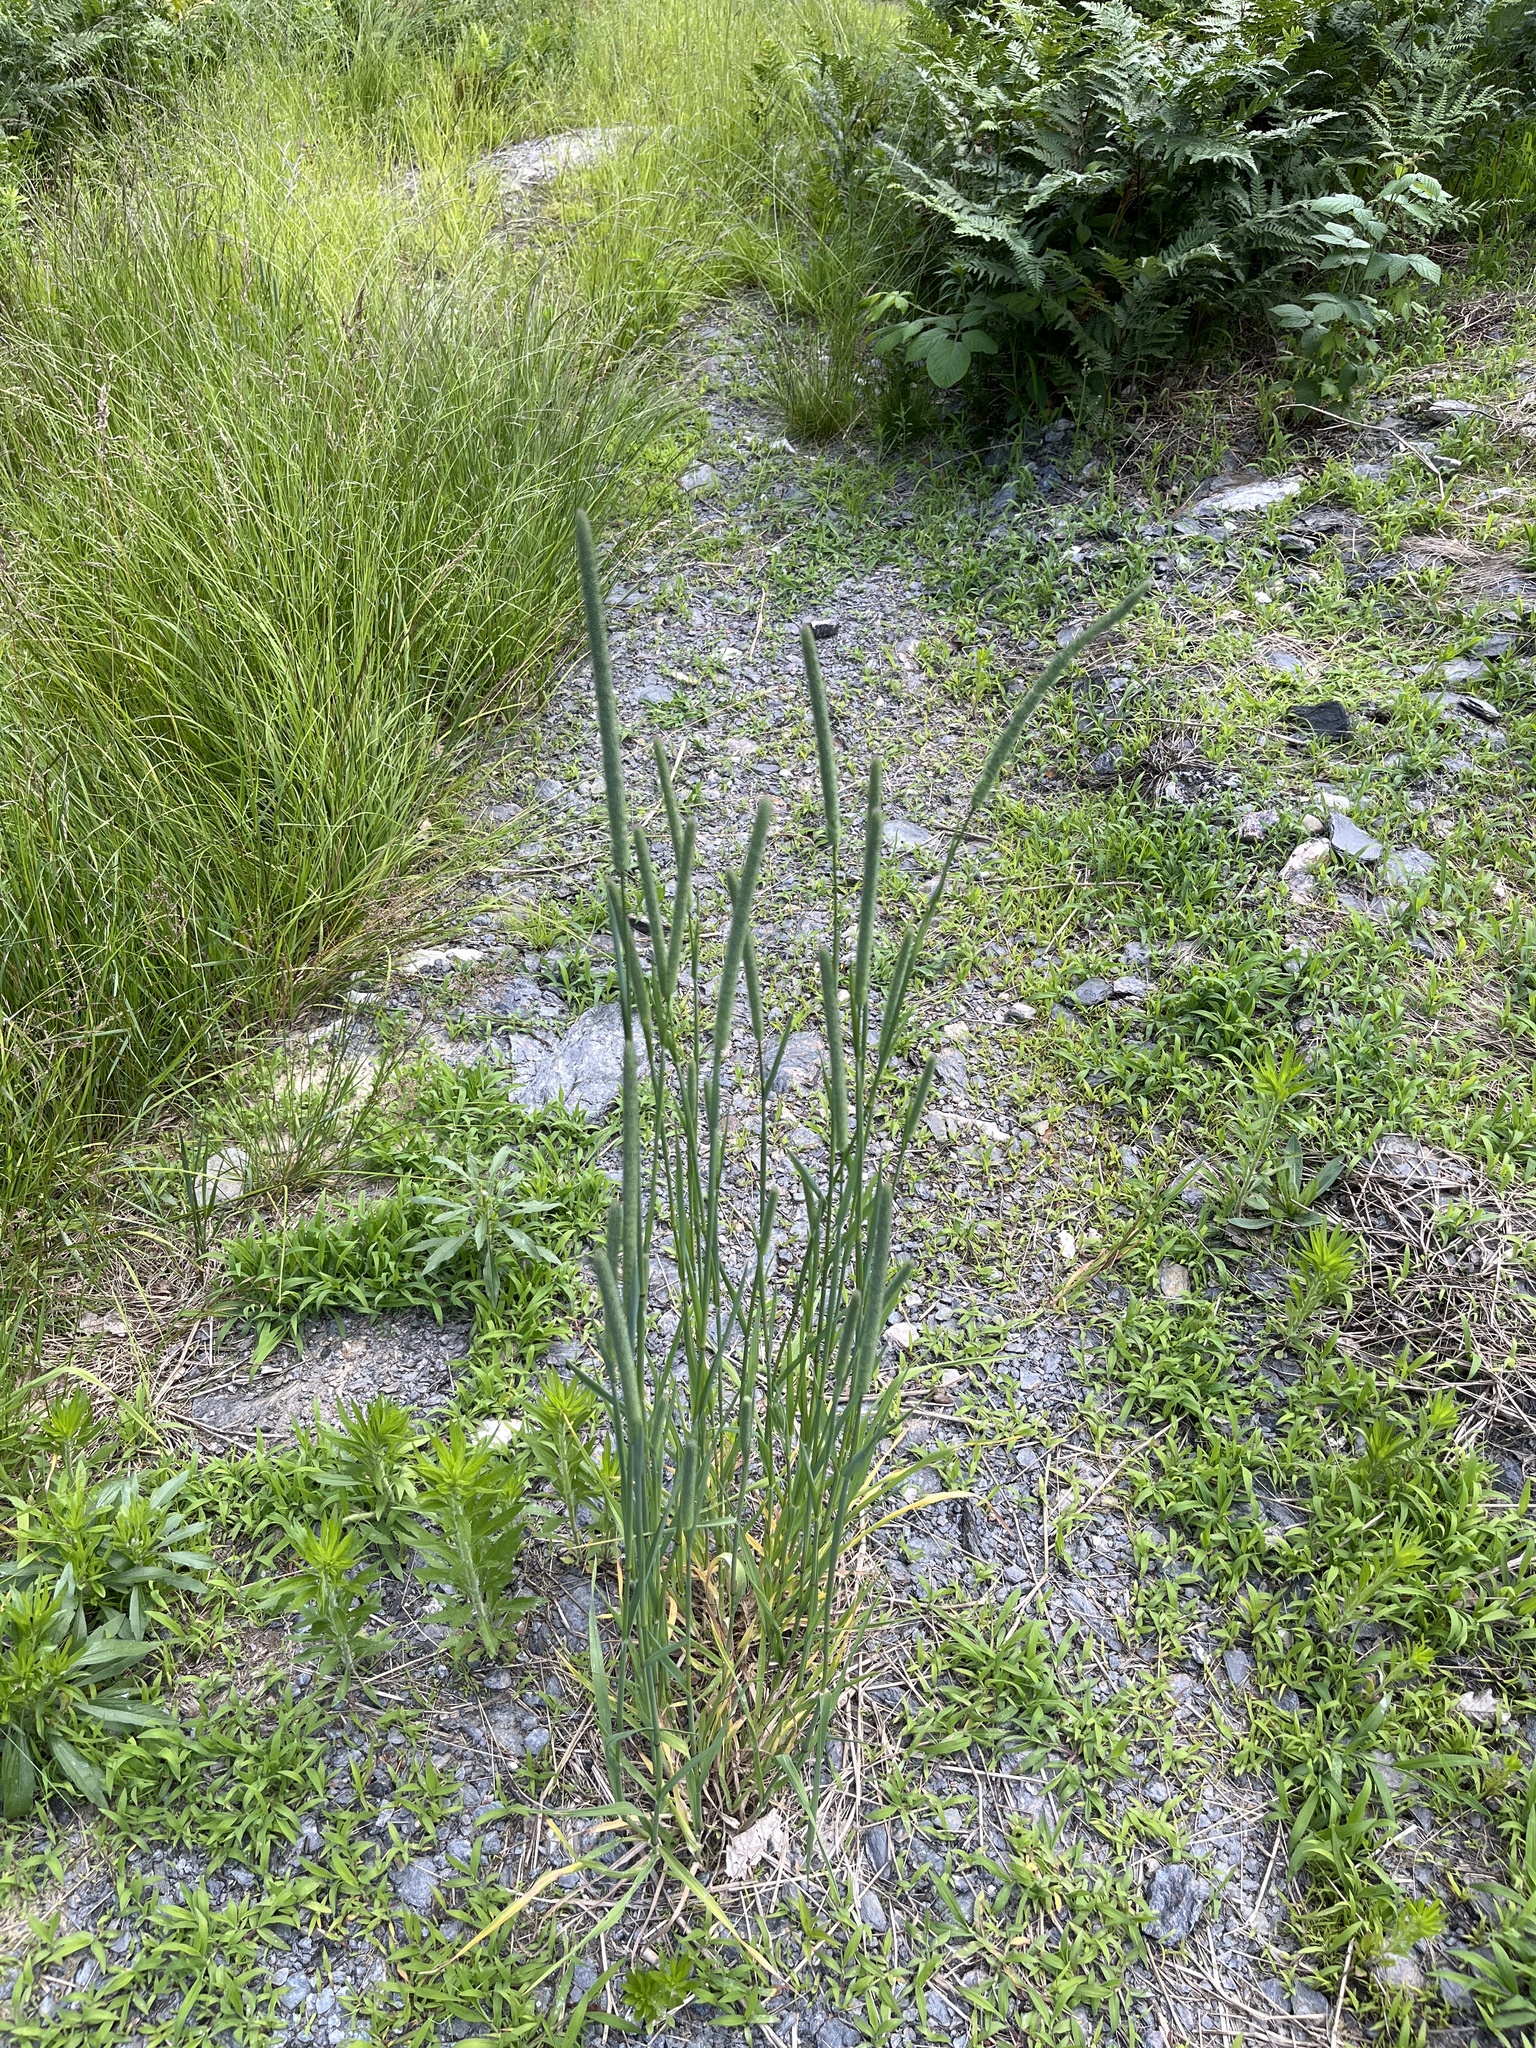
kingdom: Plantae
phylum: Tracheophyta
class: Liliopsida
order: Poales
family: Poaceae
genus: Phleum
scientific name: Phleum pratense
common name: Timothy grass
